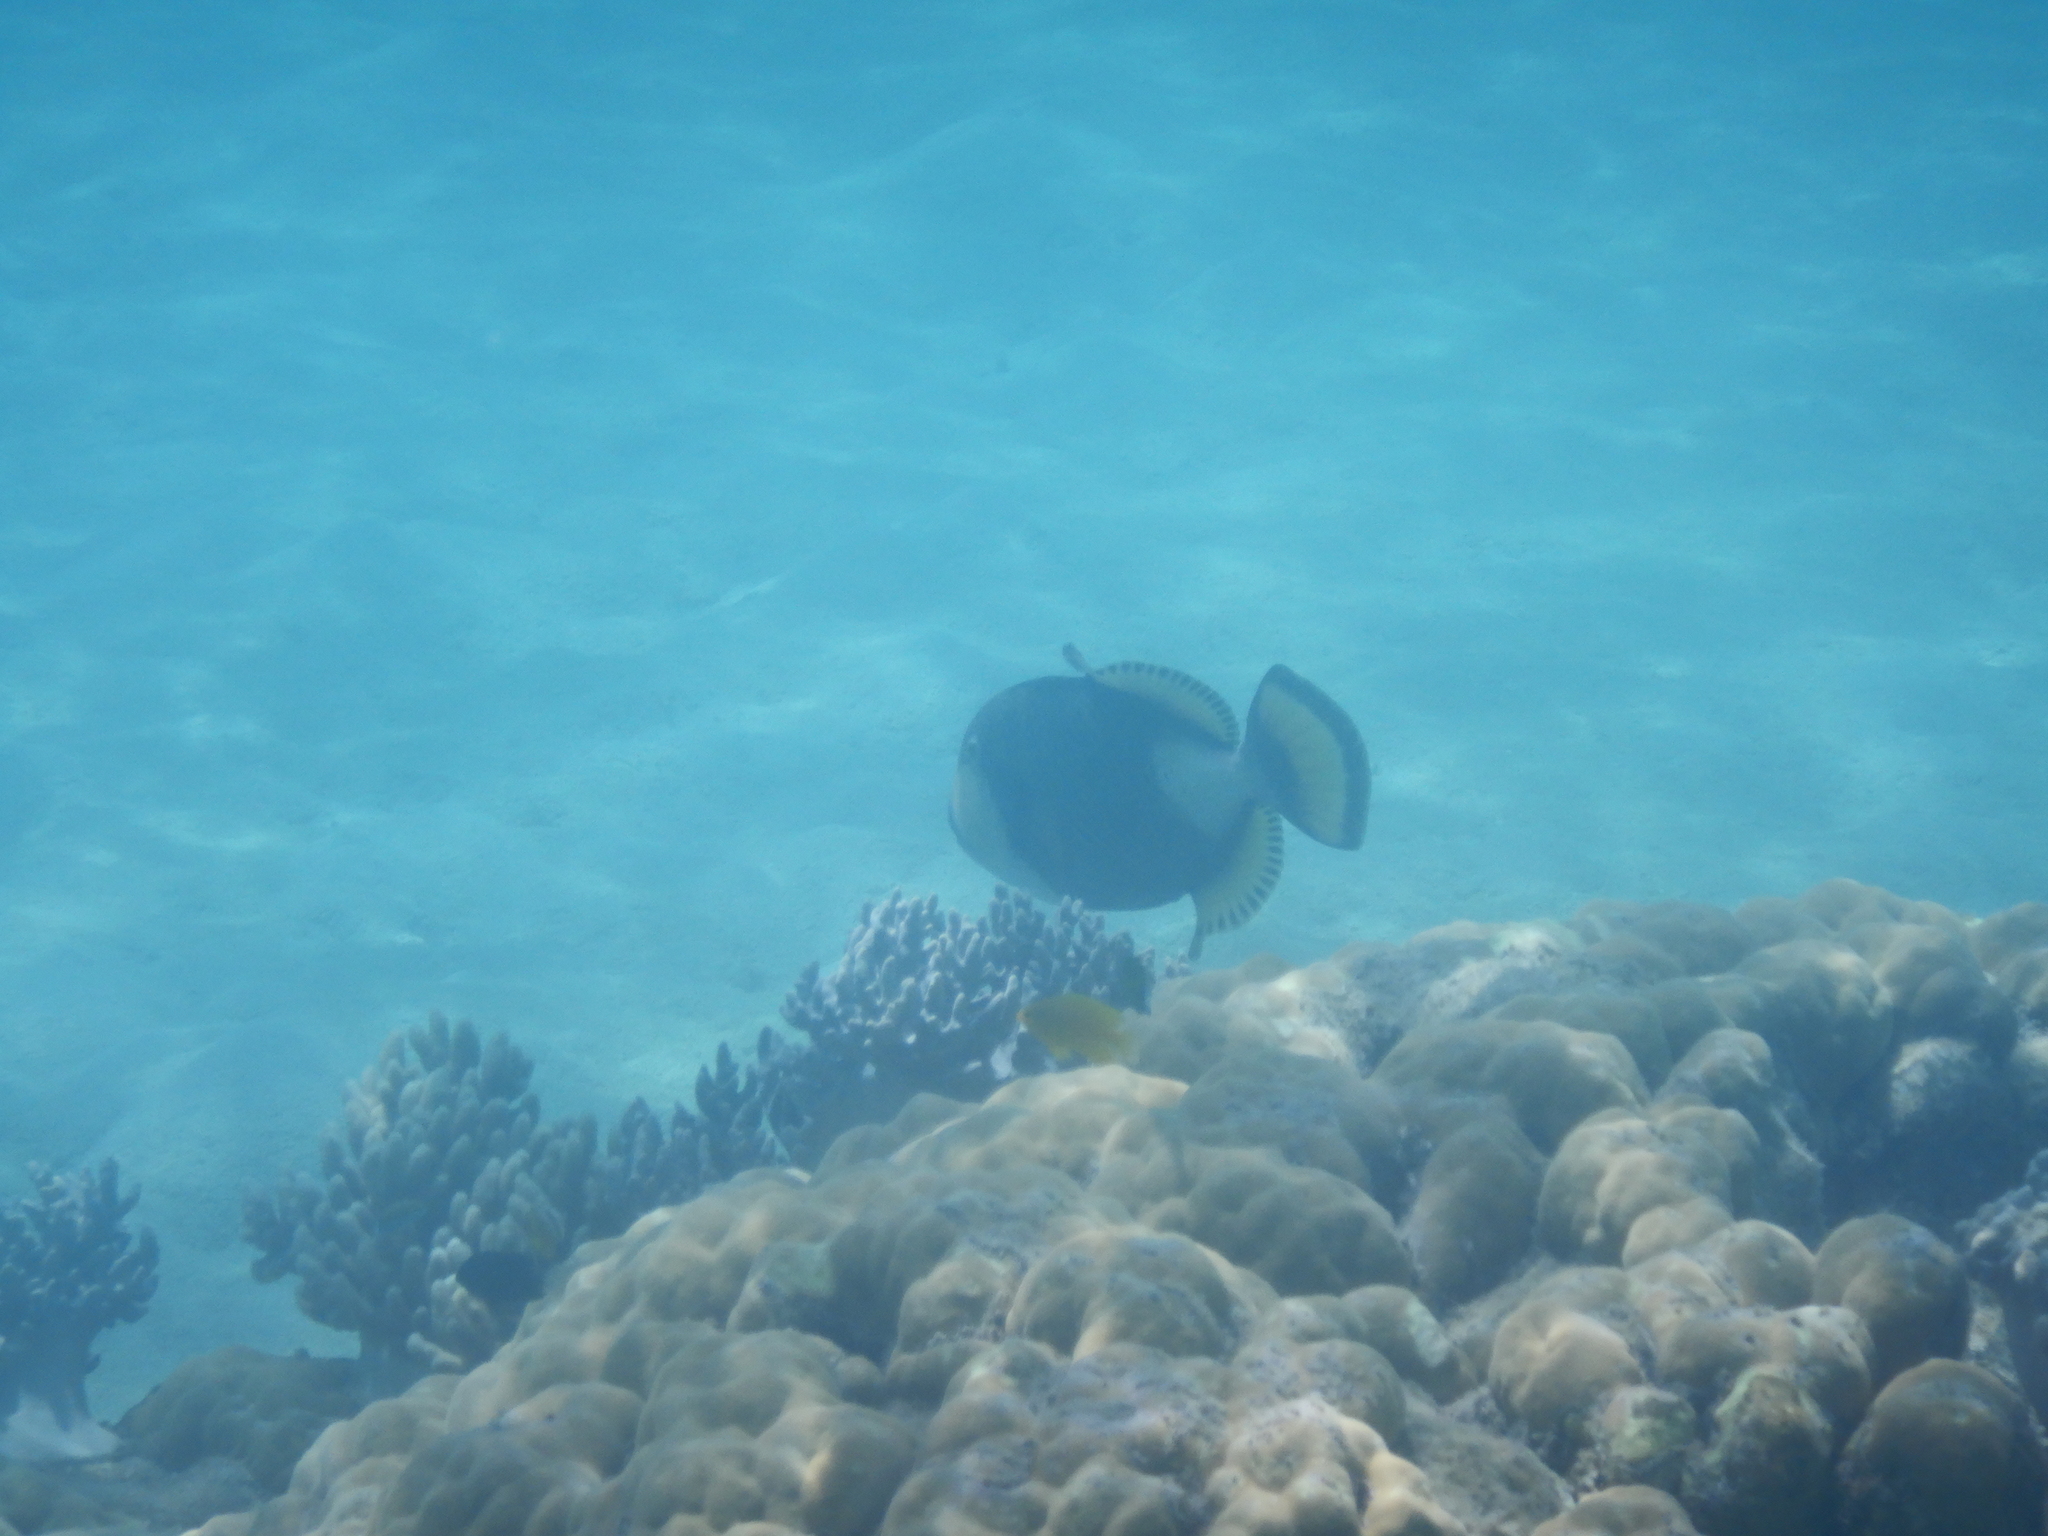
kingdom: Animalia
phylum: Chordata
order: Tetraodontiformes
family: Balistidae
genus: Balistoides
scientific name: Balistoides viridescens
